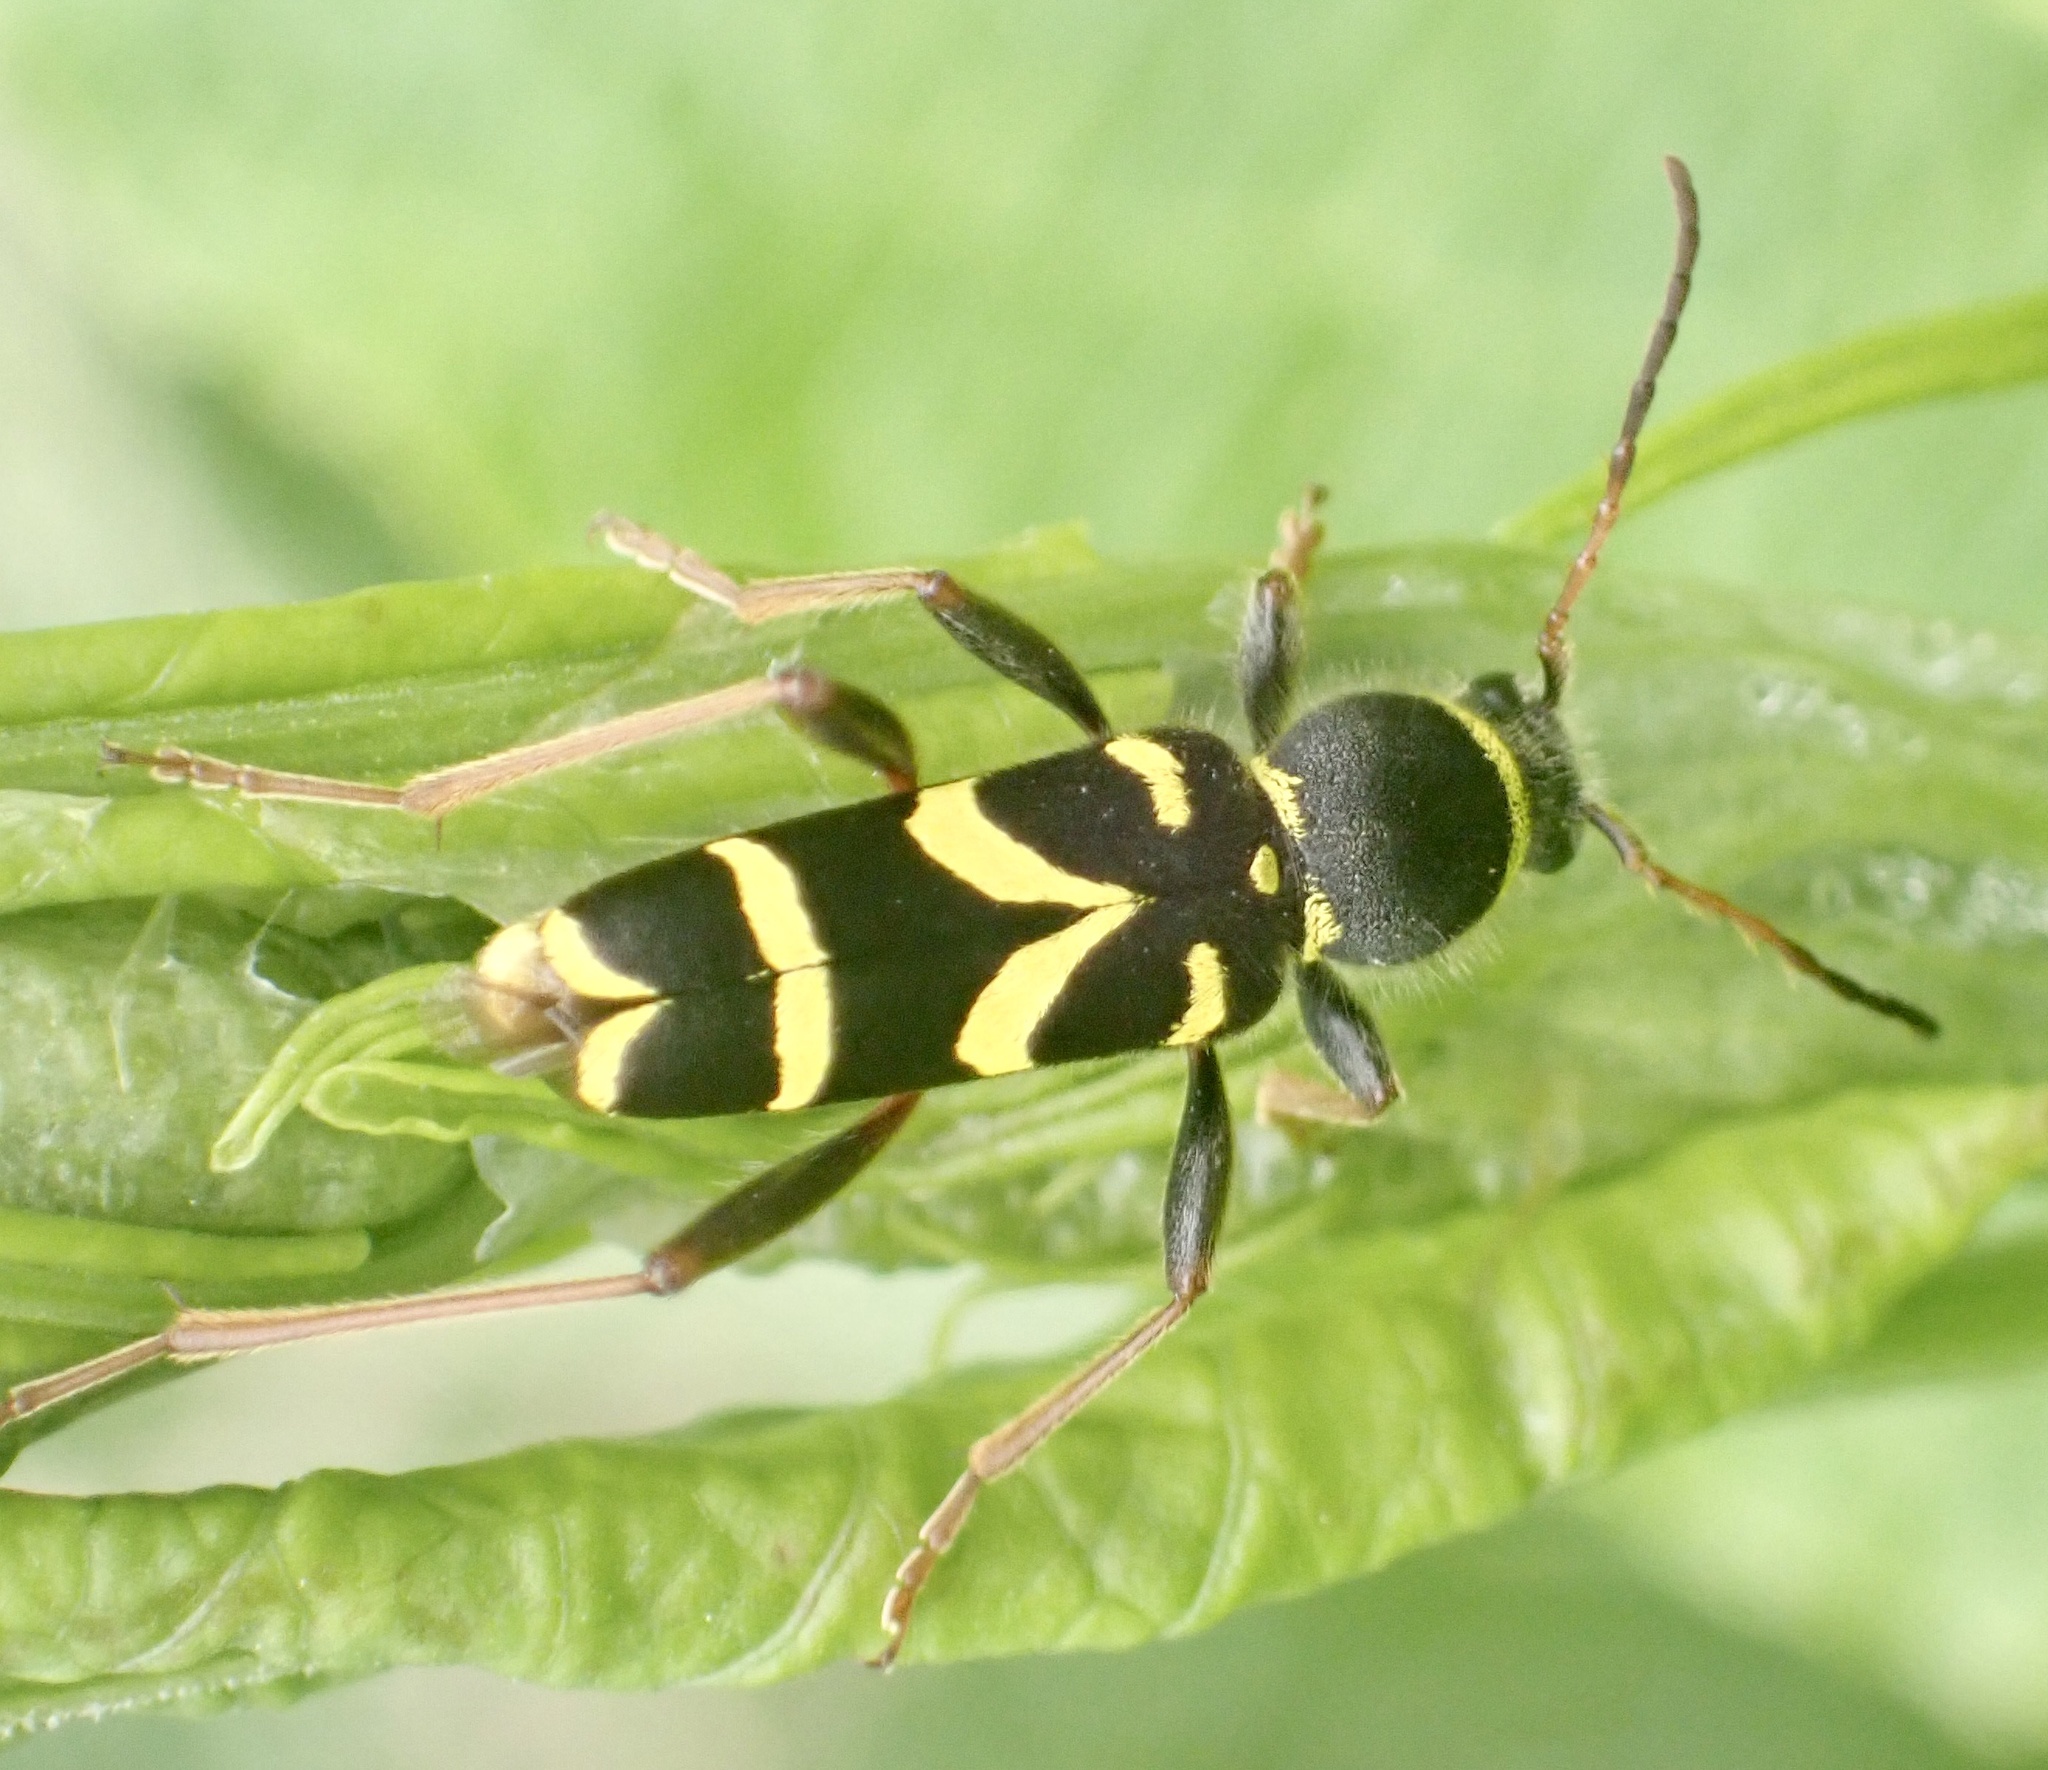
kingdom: Animalia
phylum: Arthropoda
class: Insecta
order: Coleoptera
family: Cerambycidae
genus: Clytus
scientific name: Clytus arietis
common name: Wasp beetle
